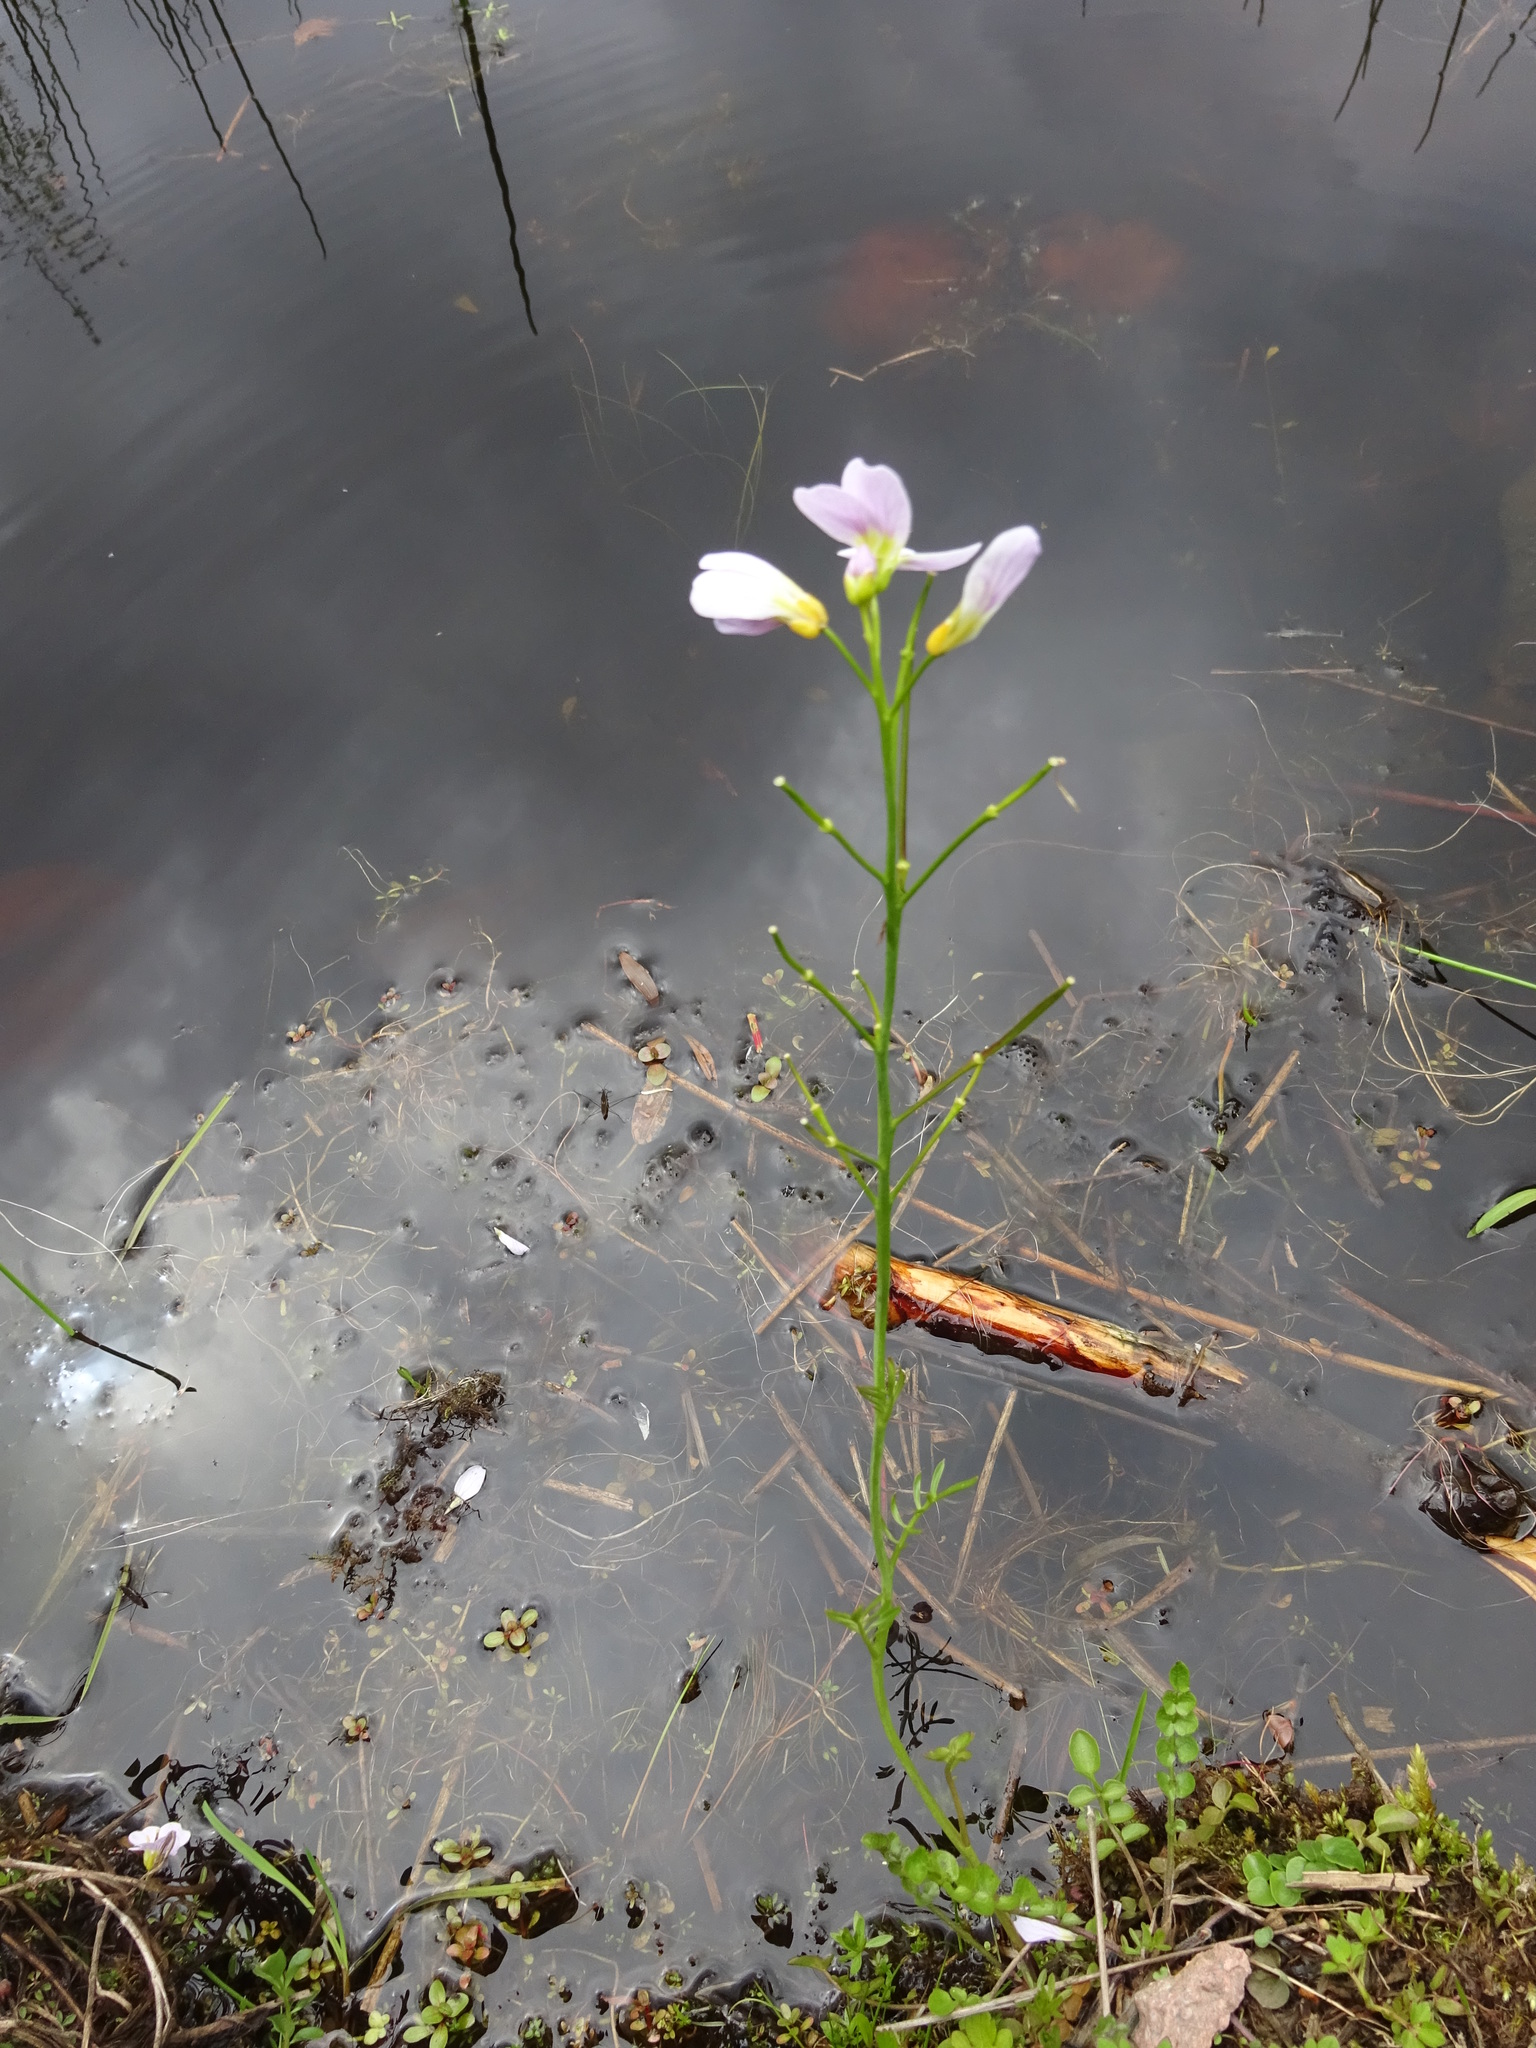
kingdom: Plantae
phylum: Tracheophyta
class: Magnoliopsida
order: Brassicales
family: Brassicaceae
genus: Cardamine
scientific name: Cardamine pratensis
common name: Cuckoo flower
